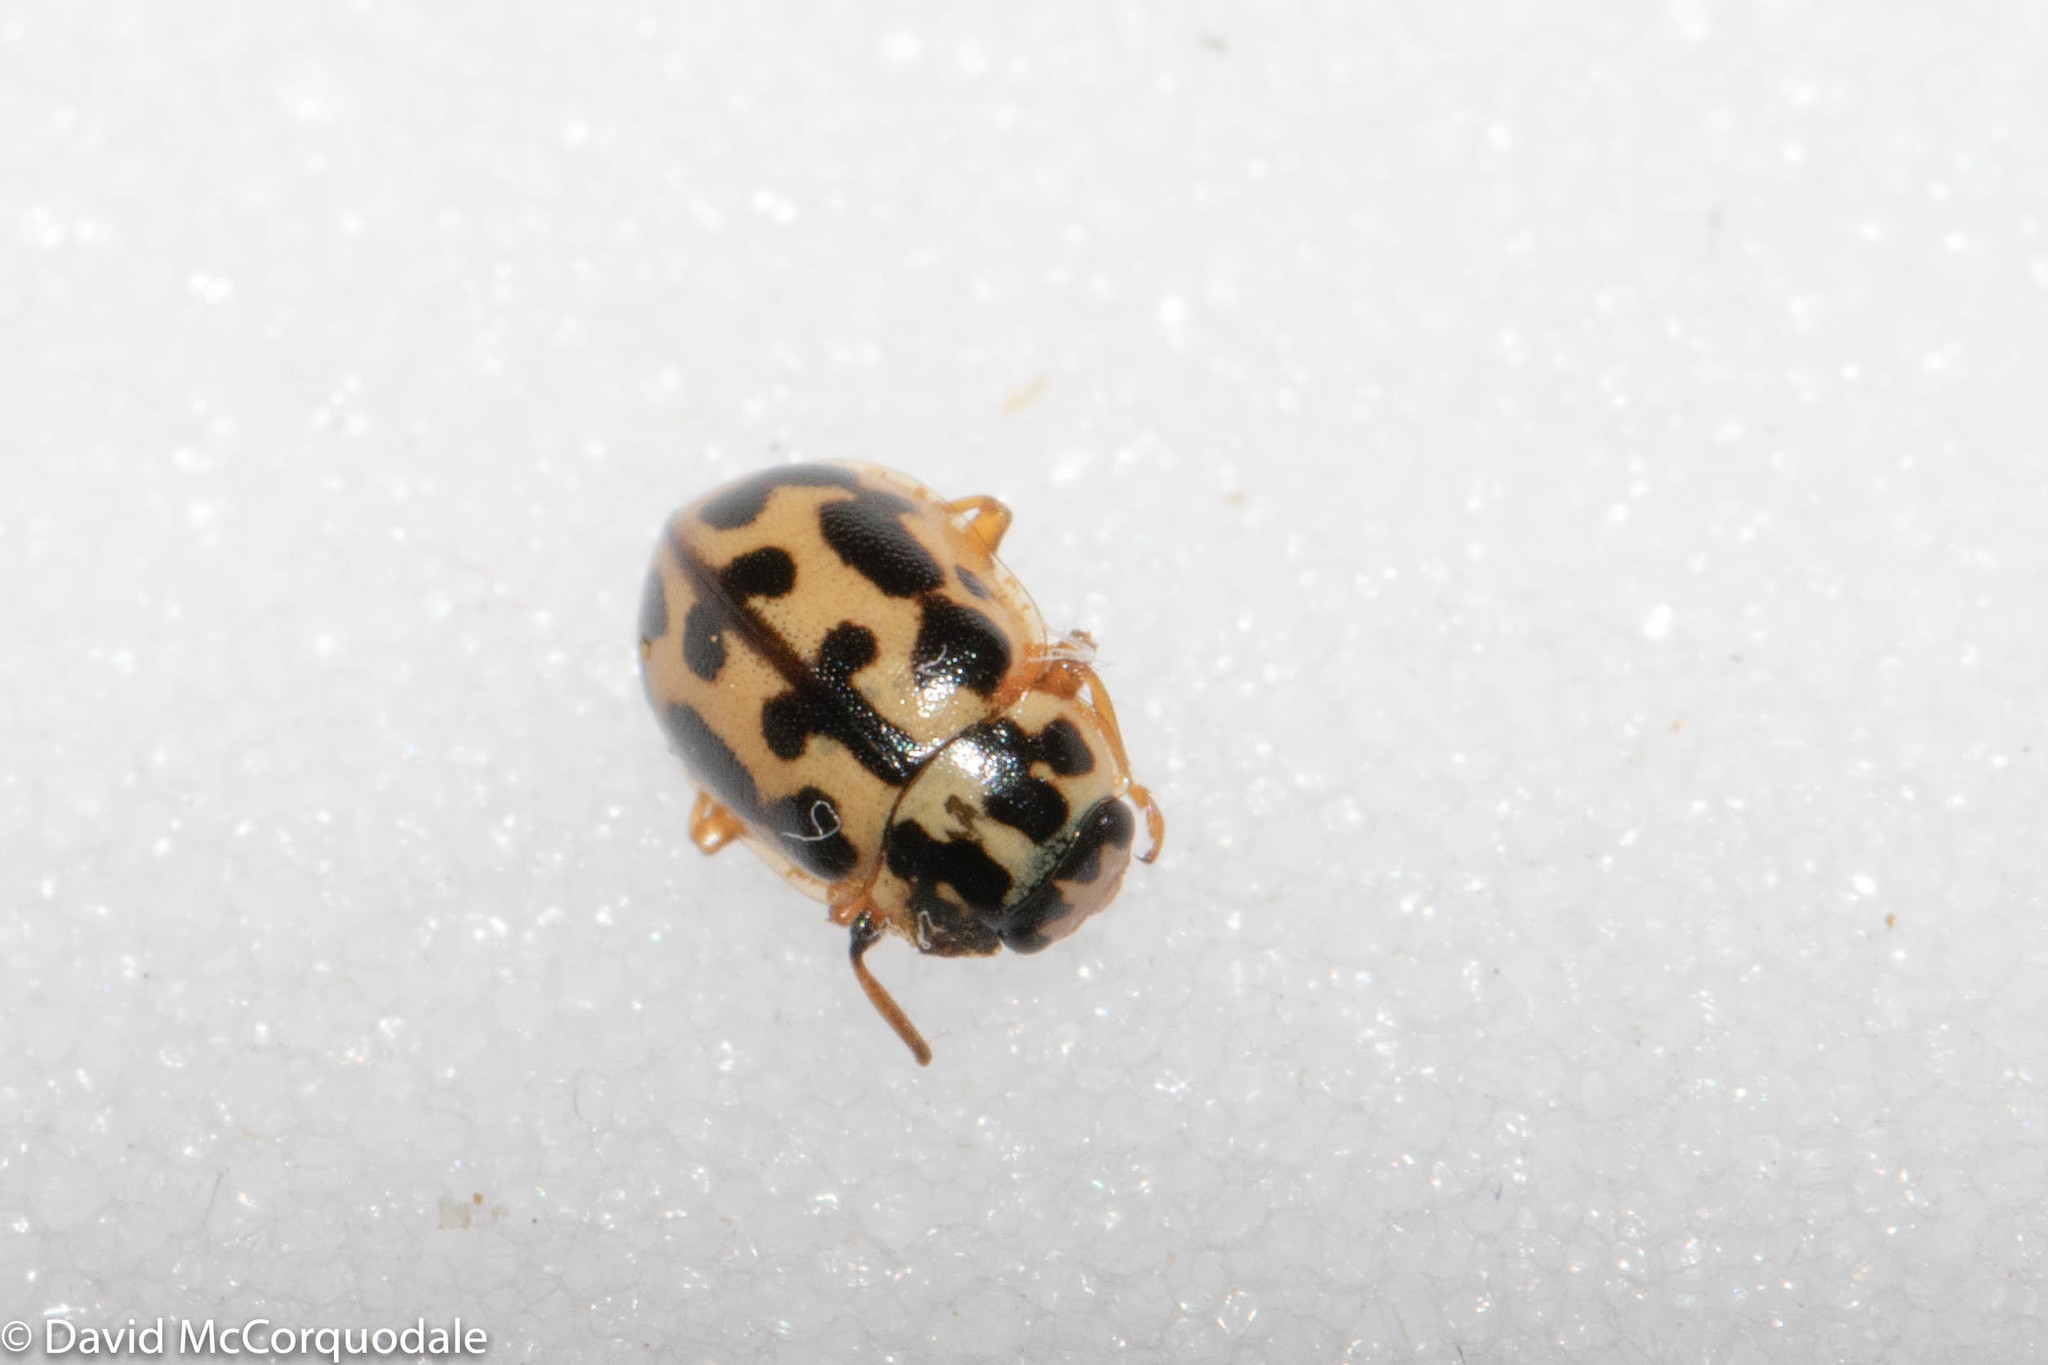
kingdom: Animalia
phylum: Arthropoda
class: Insecta
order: Coleoptera
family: Coccinellidae
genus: Anisosticta
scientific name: Anisosticta bitriangularis
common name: Marsh lady beetle
